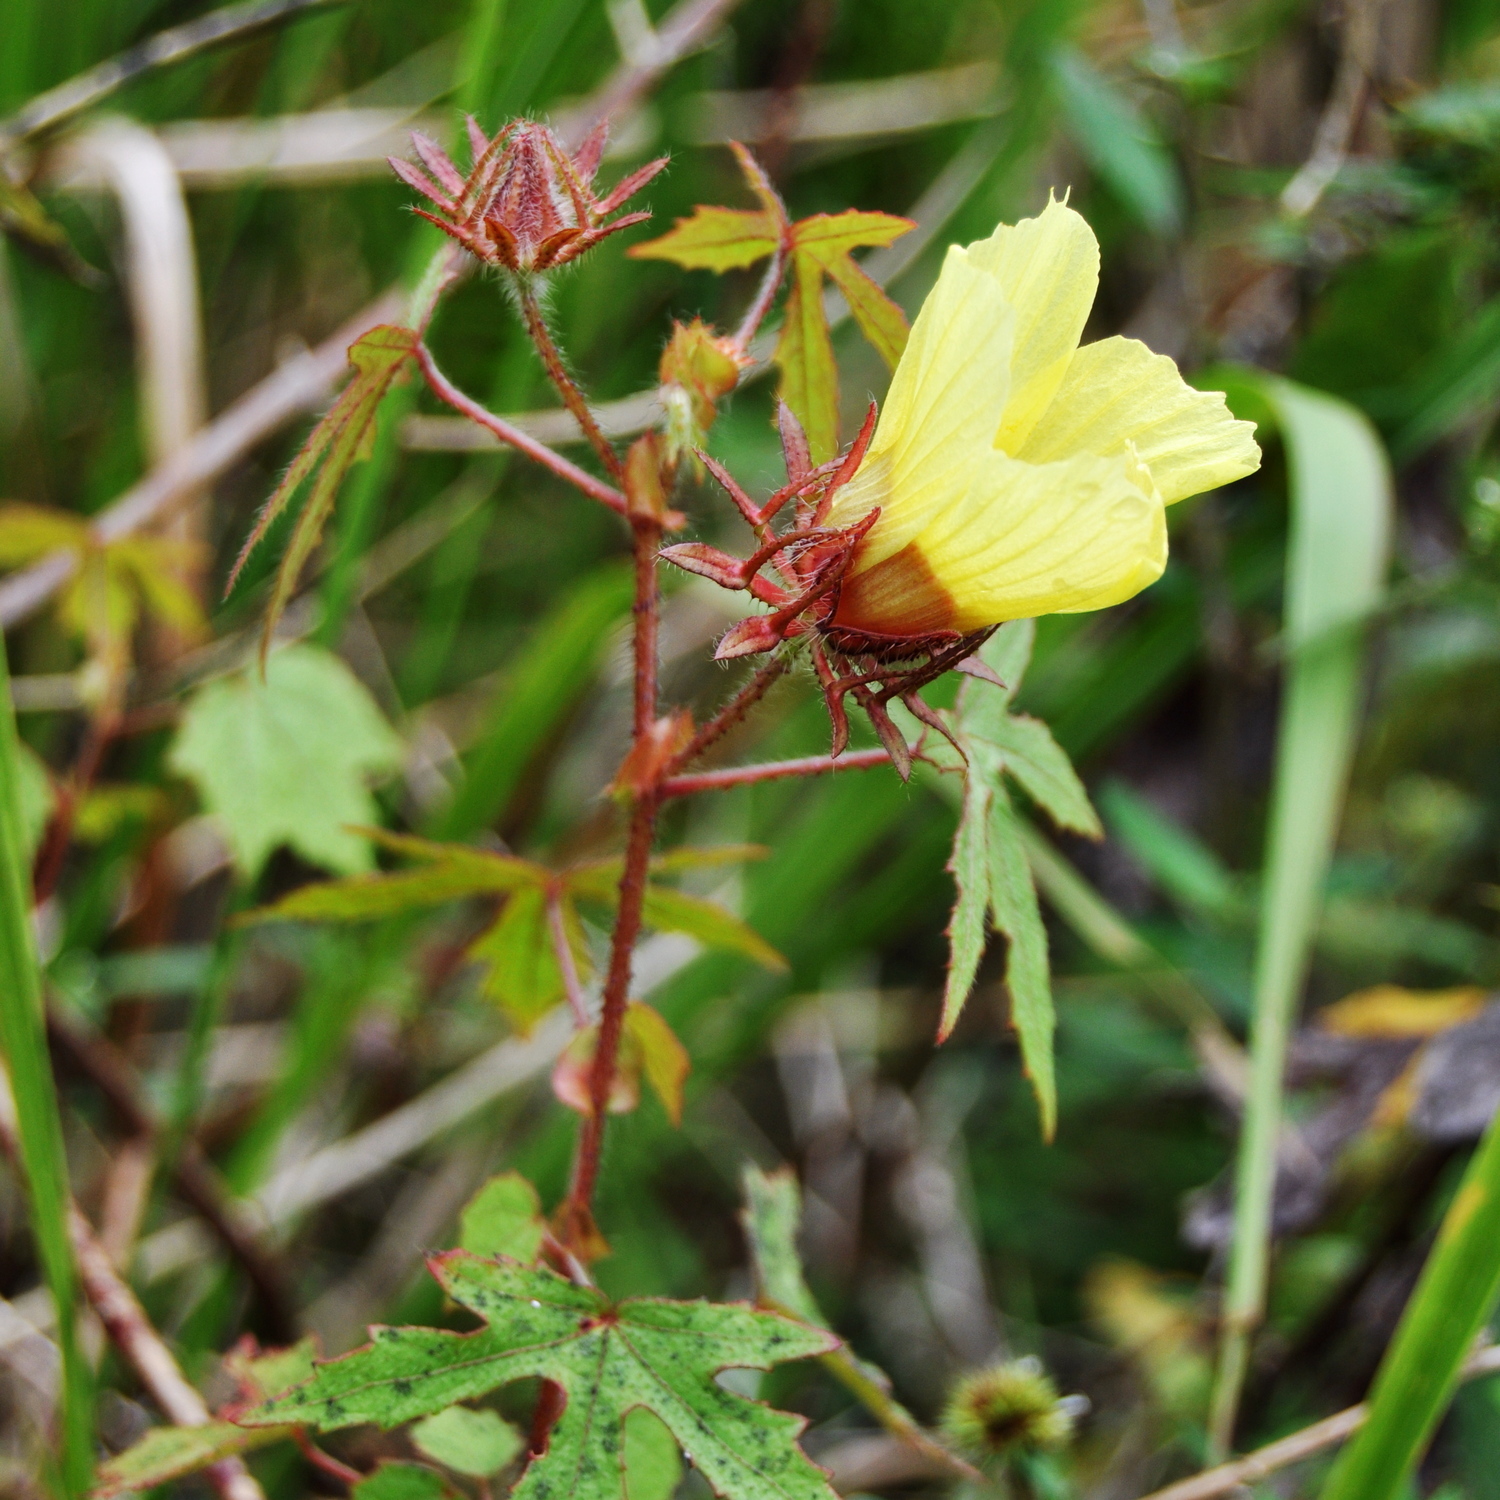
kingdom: Plantae
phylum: Tracheophyta
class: Magnoliopsida
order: Malvales
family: Malvaceae
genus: Hibiscus
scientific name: Hibiscus surattensis
